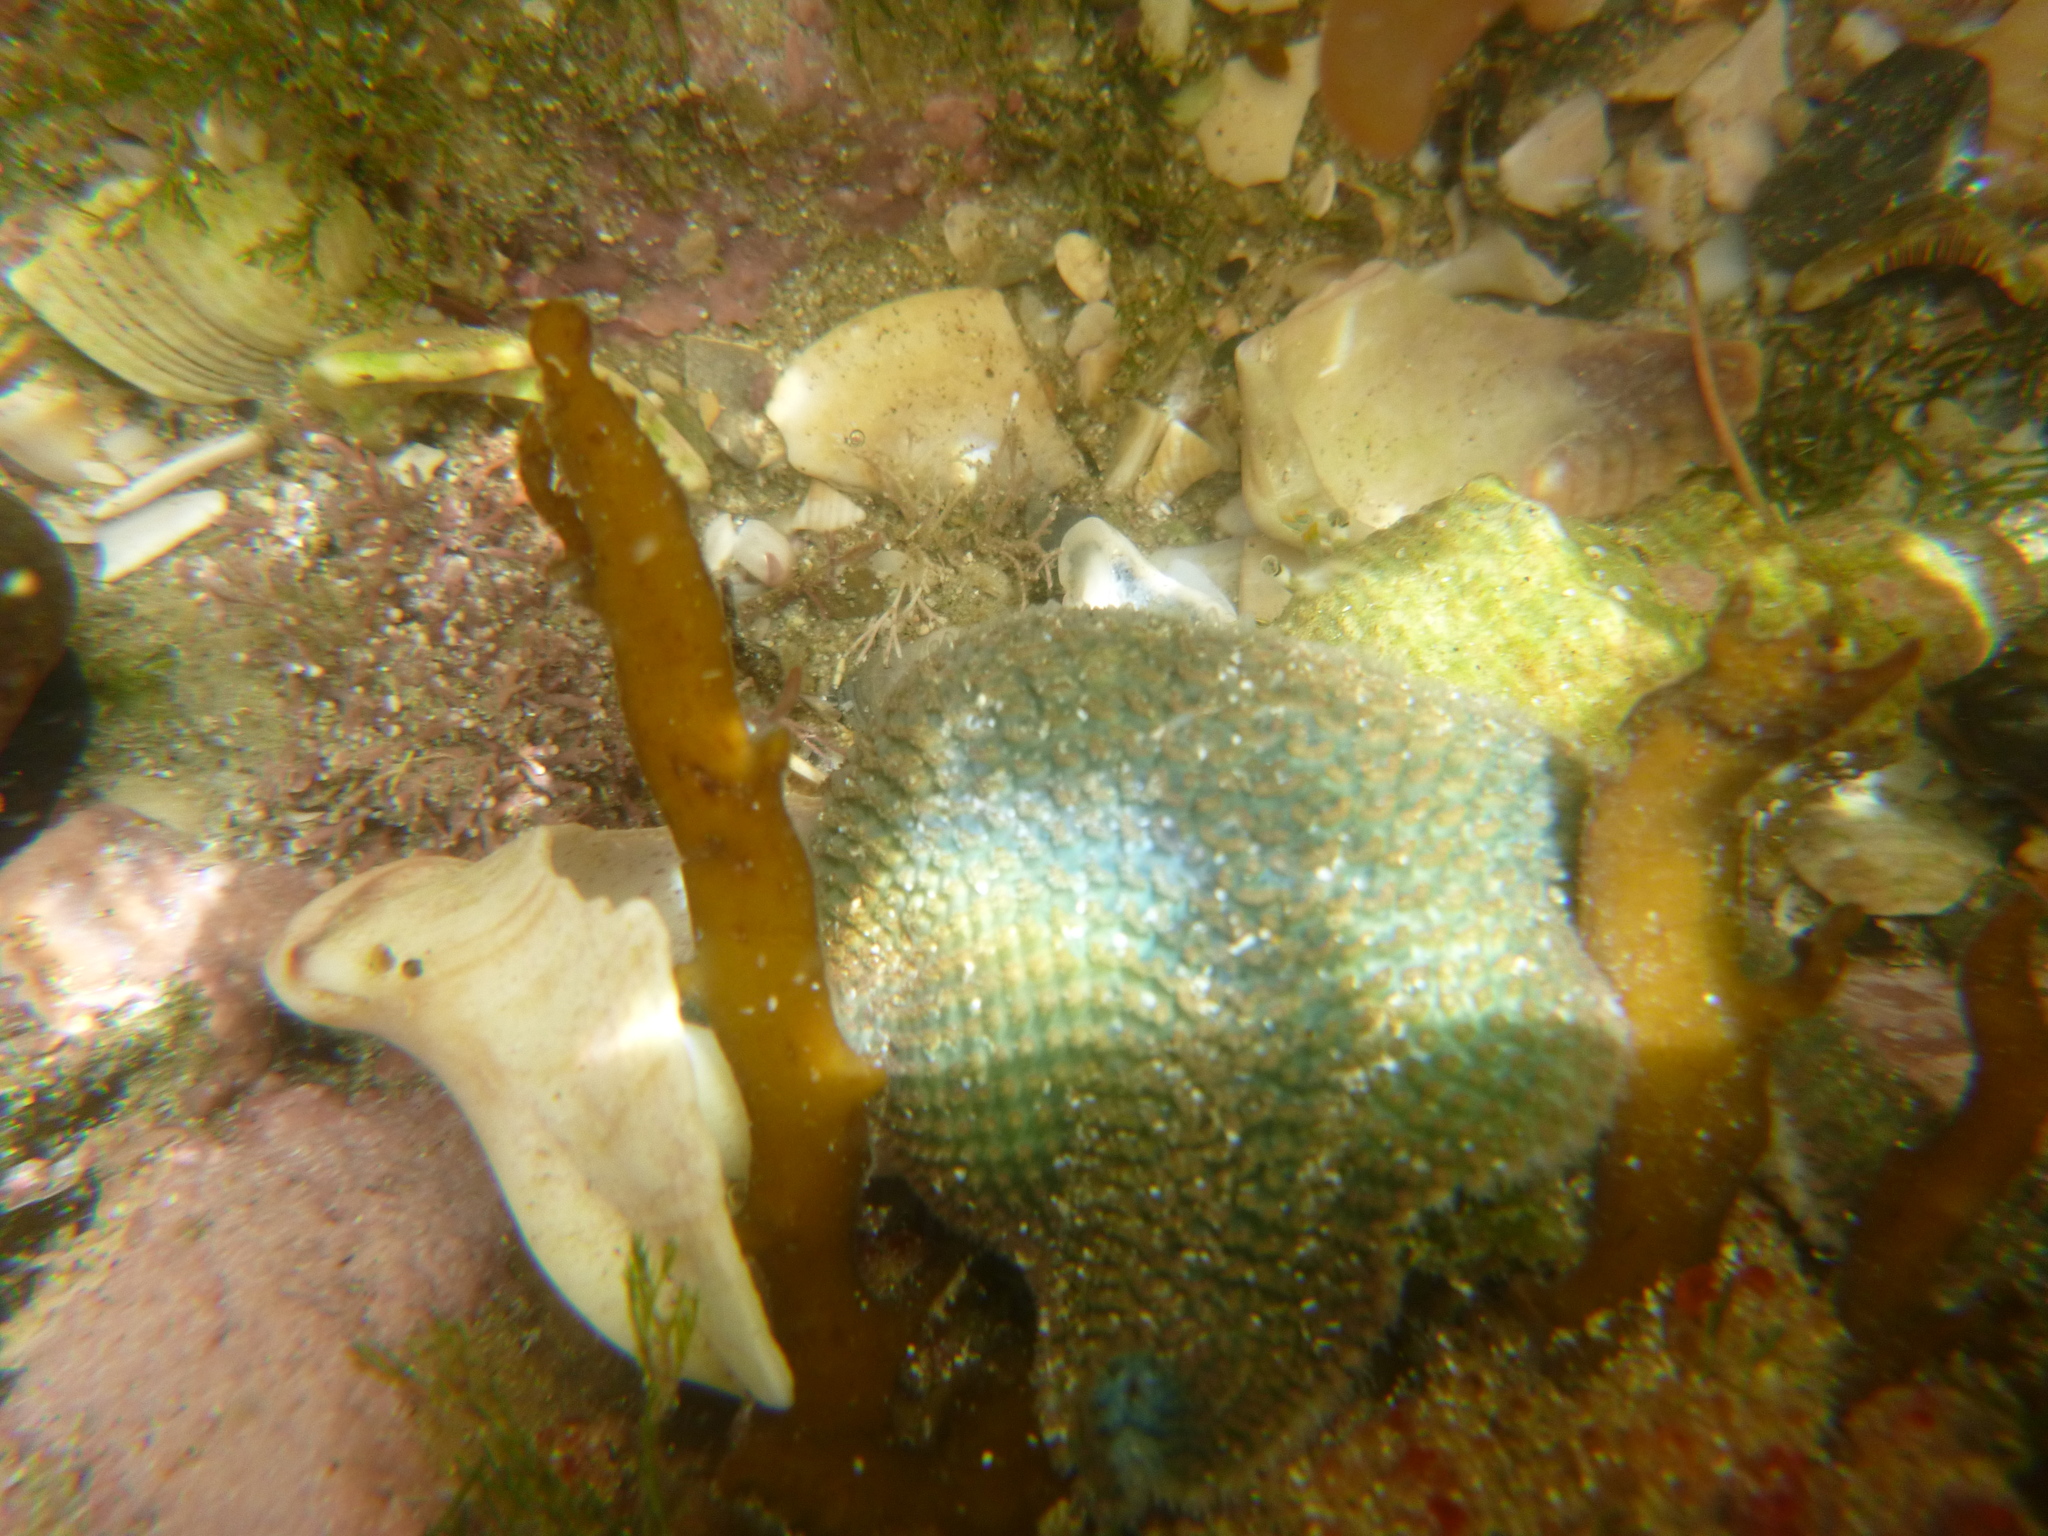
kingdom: Animalia
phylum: Echinodermata
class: Asteroidea
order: Valvatida
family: Asterinidae
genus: Patiriella
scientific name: Patiriella regularis
